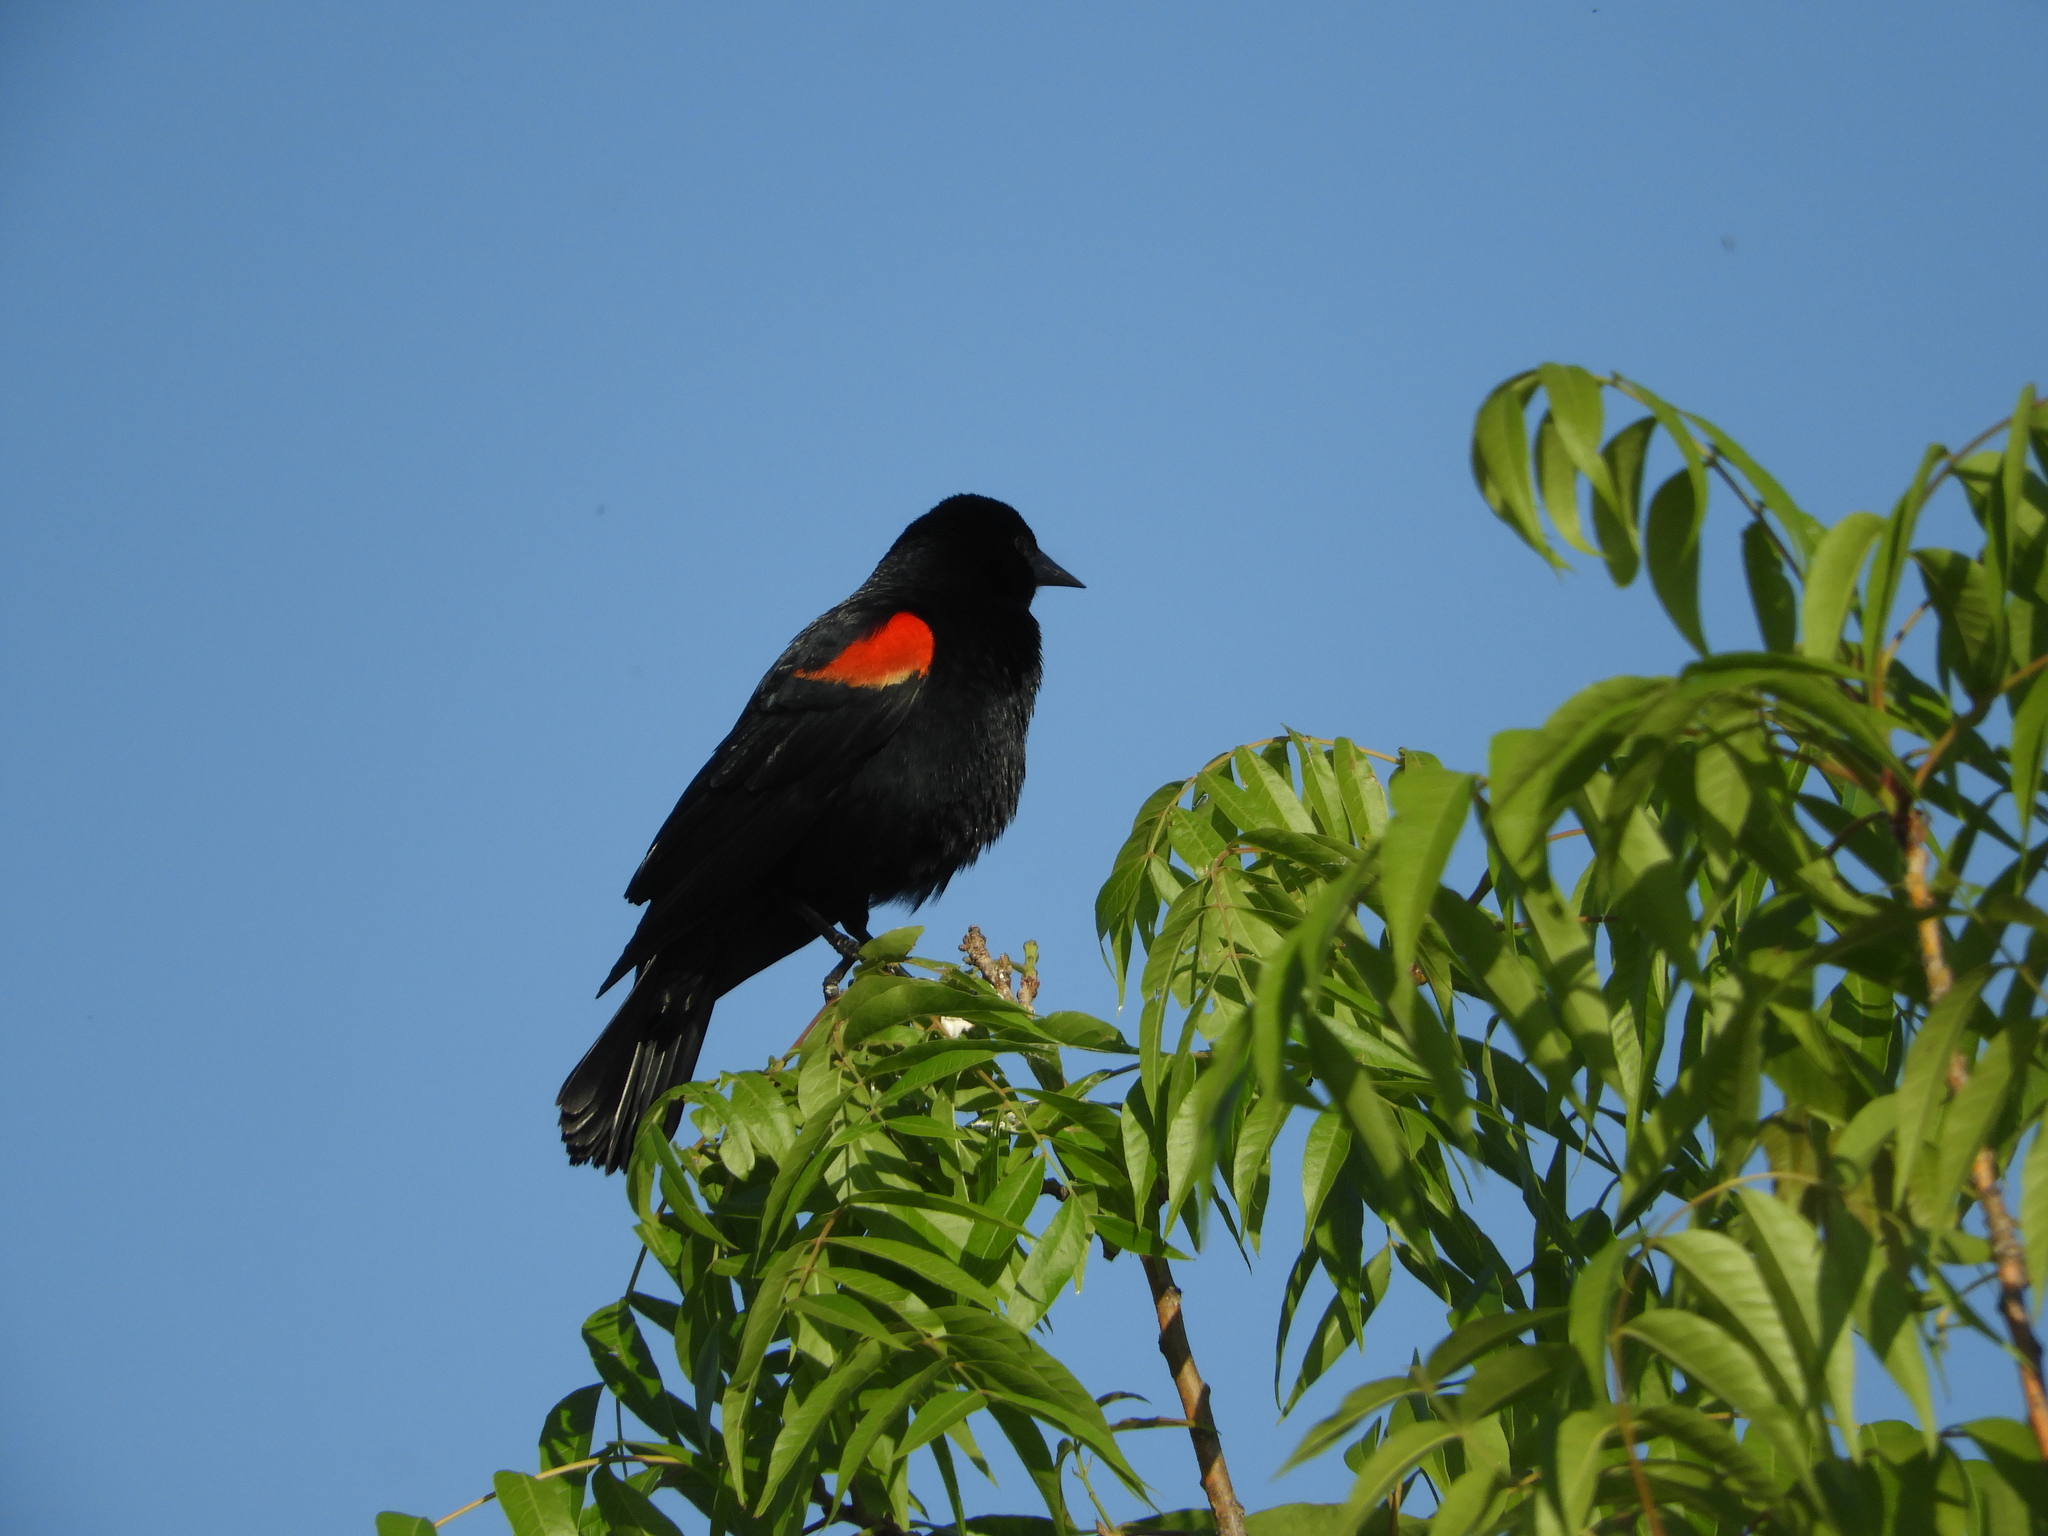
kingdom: Animalia
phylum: Chordata
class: Aves
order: Passeriformes
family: Icteridae
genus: Agelaius
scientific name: Agelaius phoeniceus
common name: Red-winged blackbird
